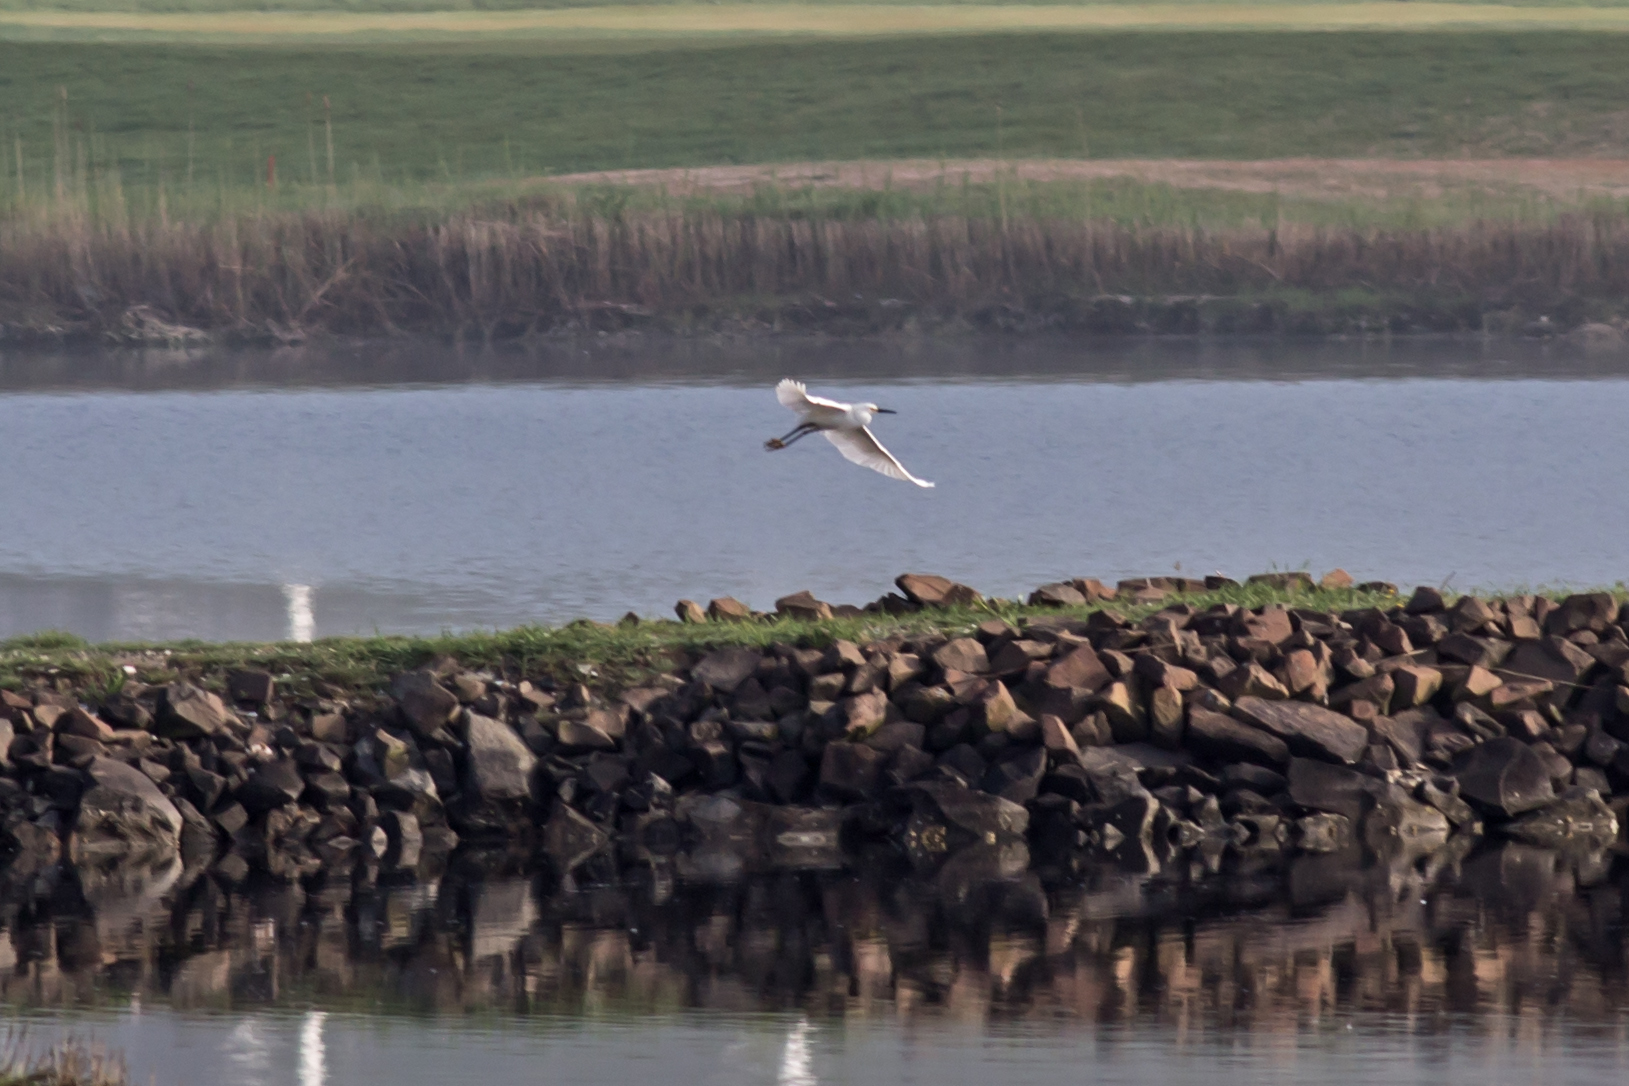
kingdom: Animalia
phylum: Chordata
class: Aves
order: Pelecaniformes
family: Ardeidae
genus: Egretta
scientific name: Egretta thula
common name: Snowy egret
